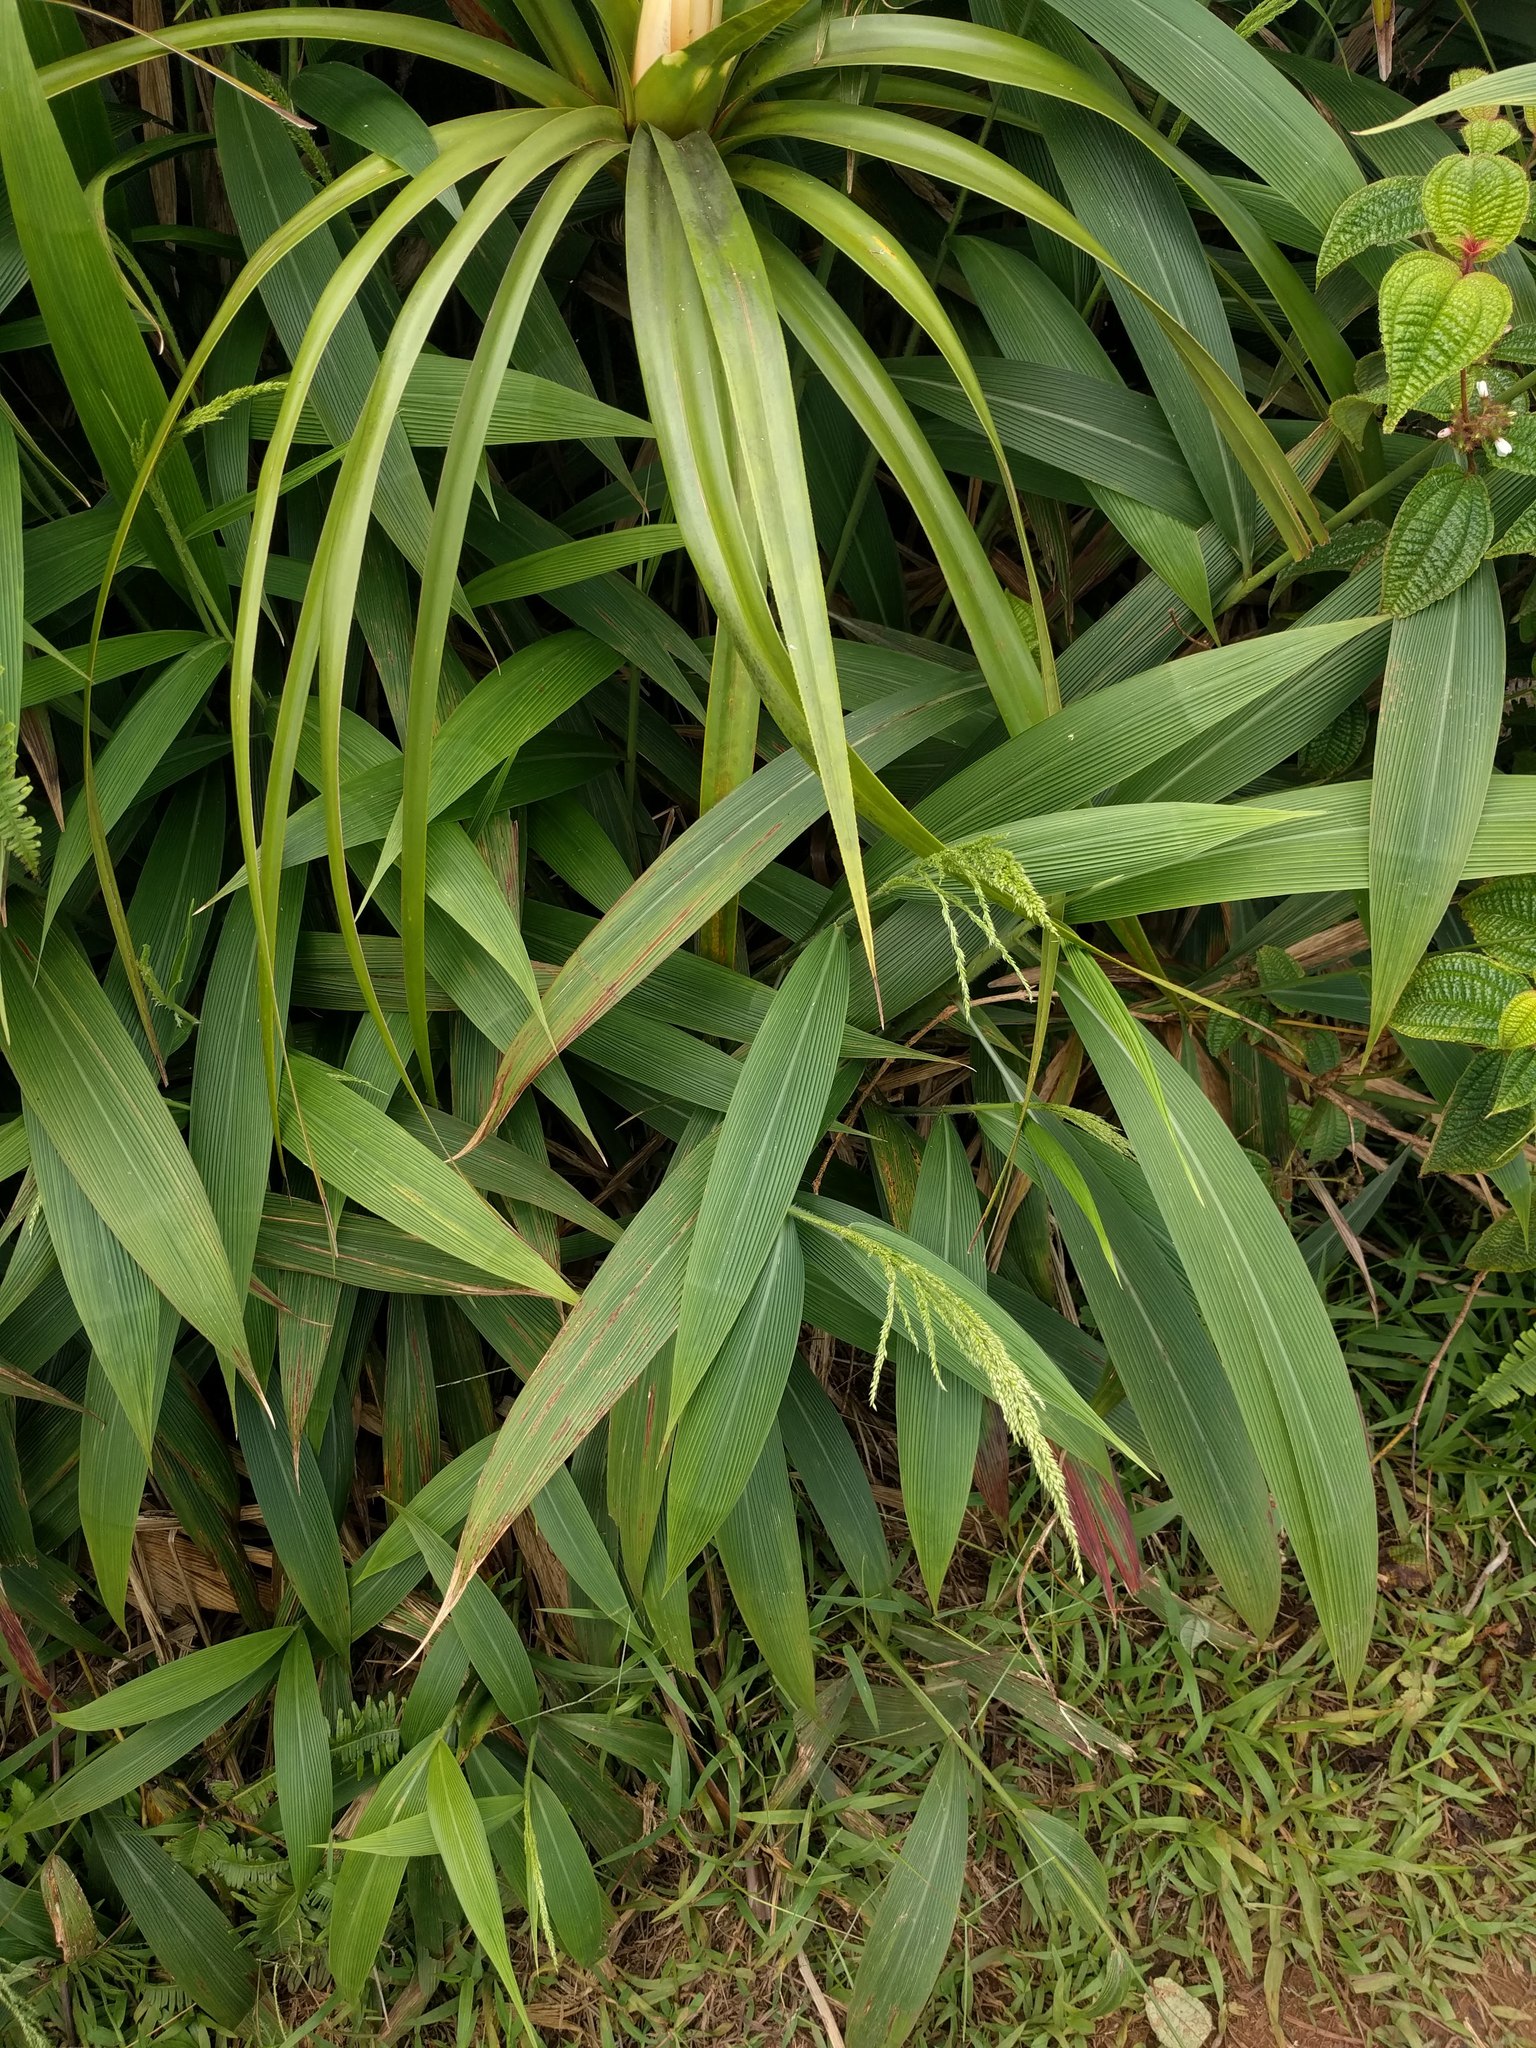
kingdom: Plantae
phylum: Tracheophyta
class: Liliopsida
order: Poales
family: Poaceae
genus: Setaria
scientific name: Setaria palmifolia
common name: Broadleaved bristlegrass
